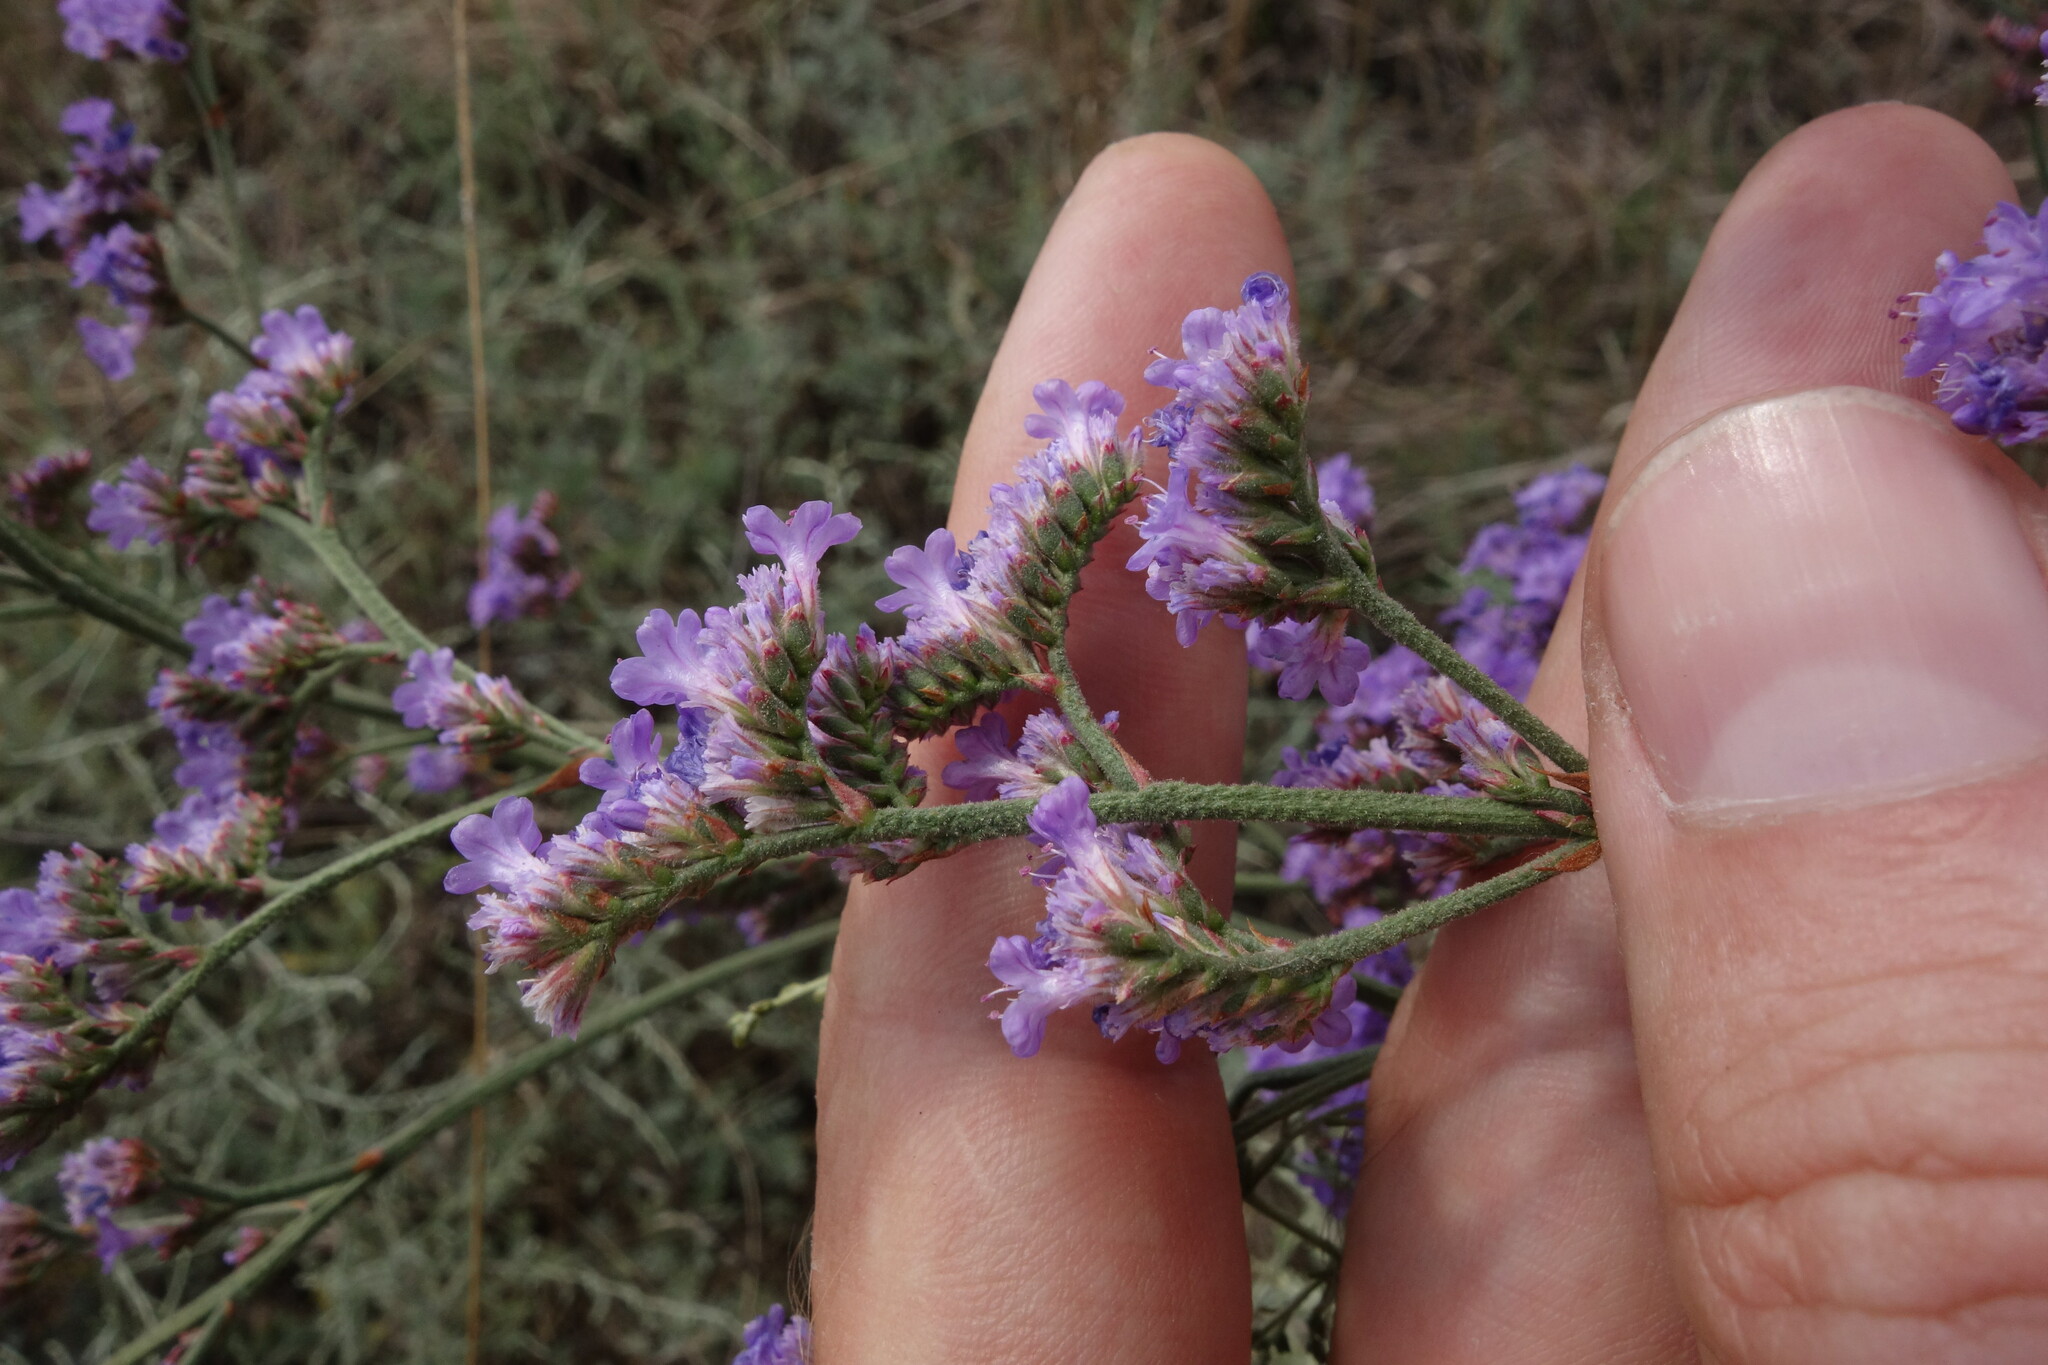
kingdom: Plantae
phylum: Tracheophyta
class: Magnoliopsida
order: Caryophyllales
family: Plumbaginaceae
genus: Limonium
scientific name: Limonium tomentellum
